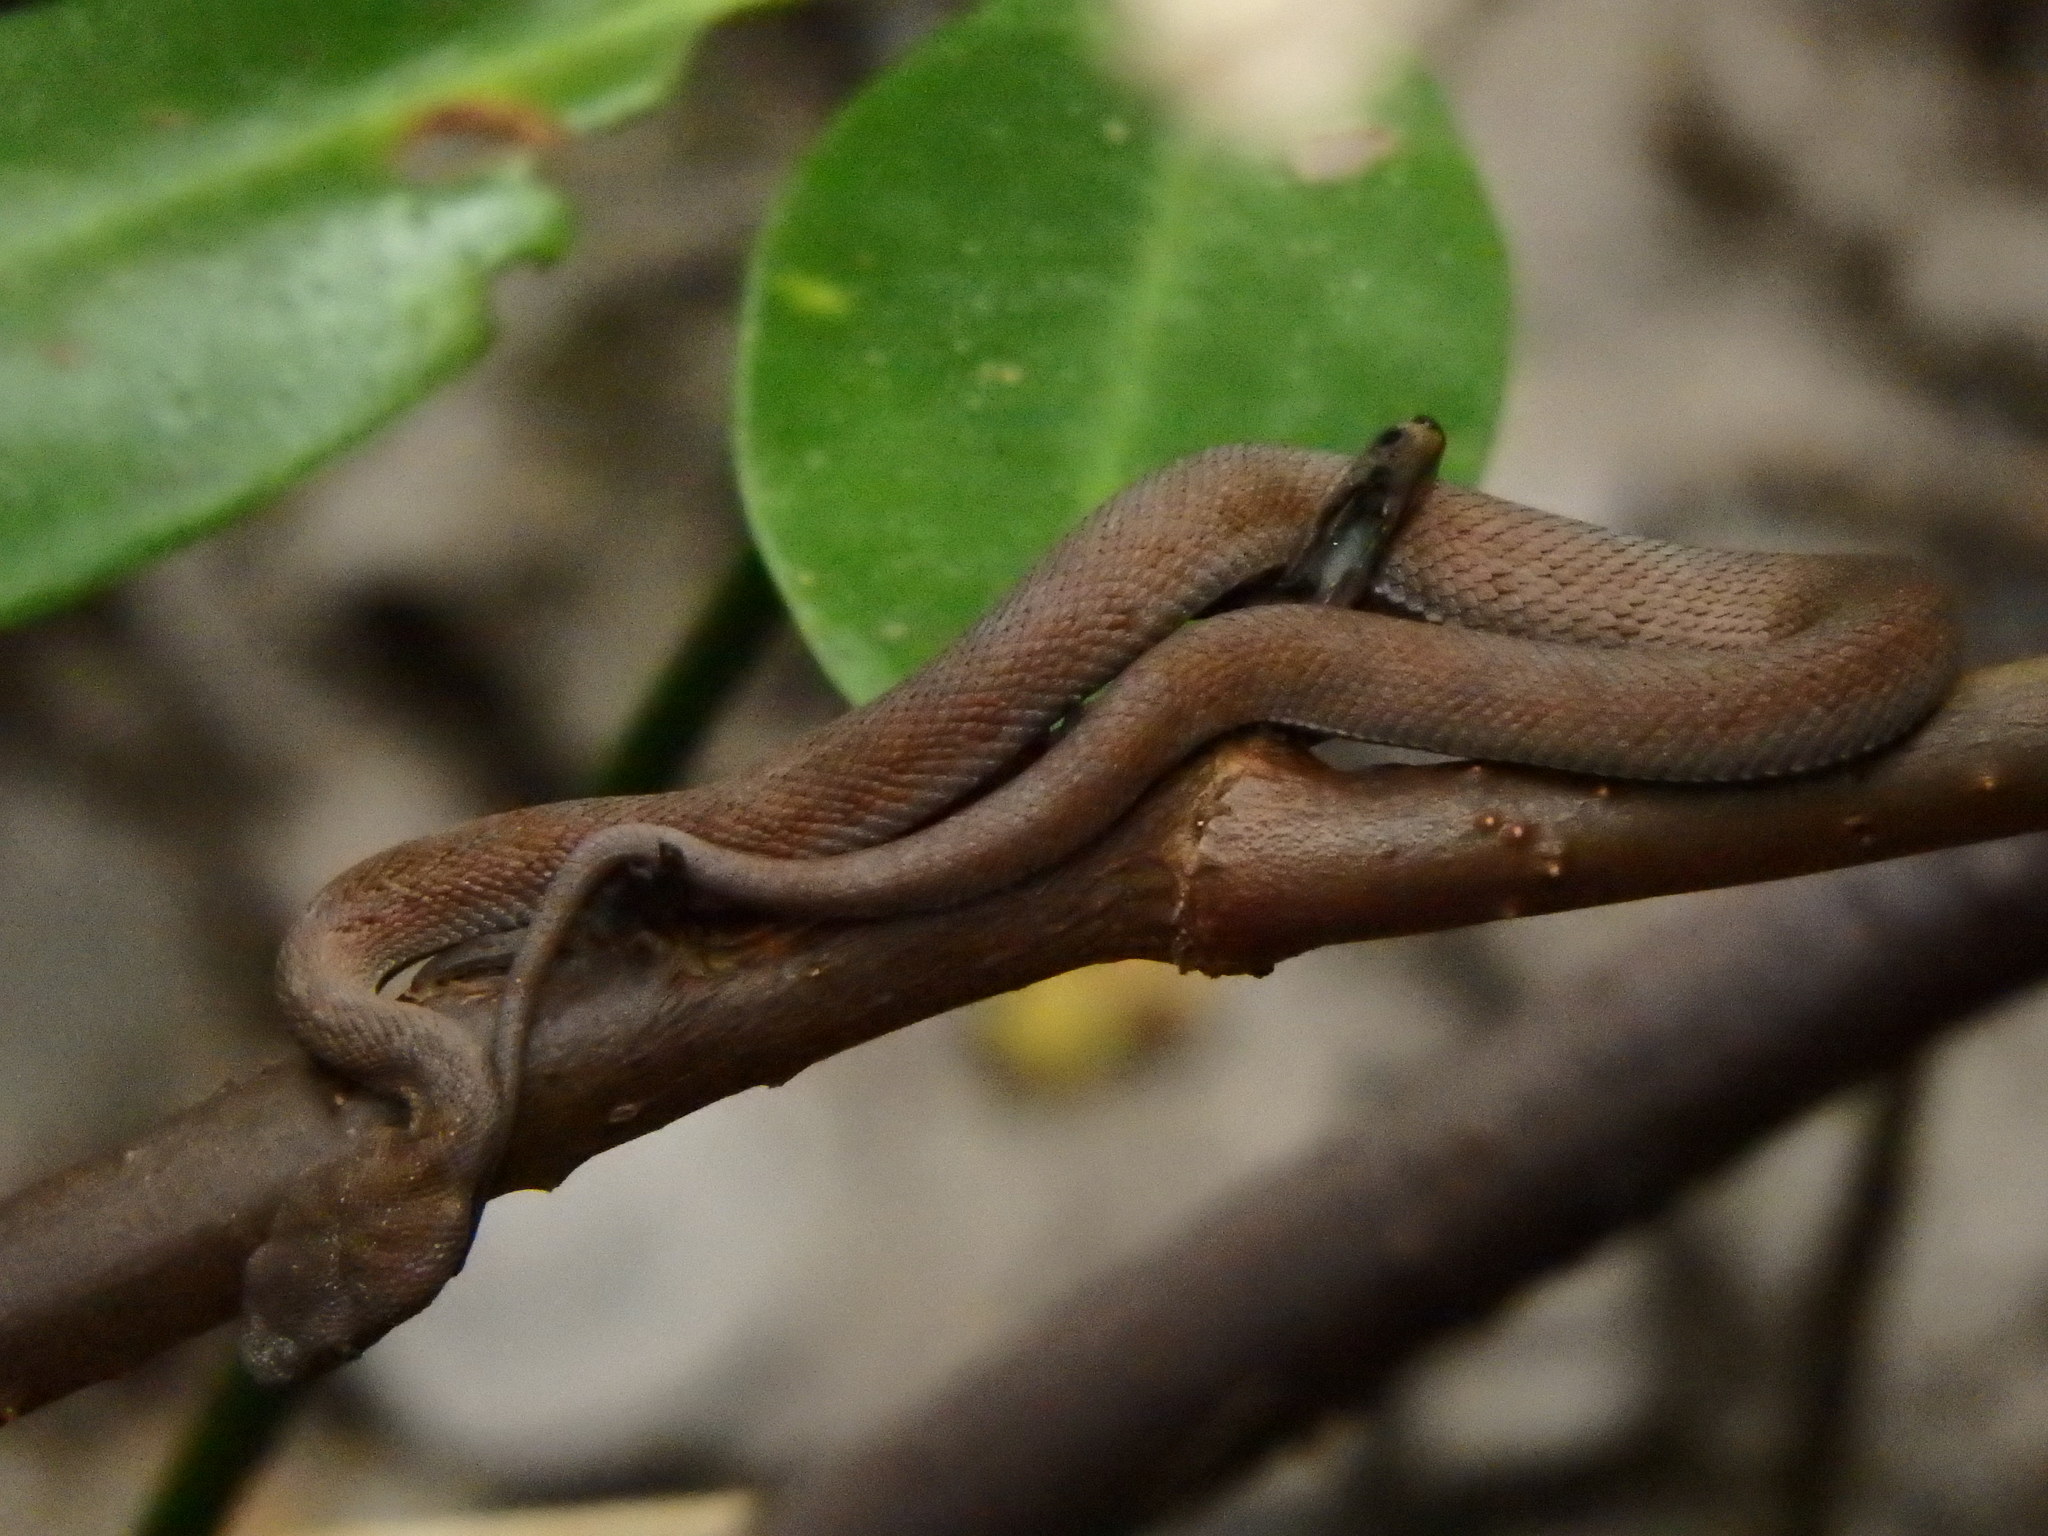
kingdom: Animalia
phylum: Chordata
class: Squamata
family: Viperidae
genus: Trimeresurus
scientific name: Trimeresurus purpureomaculatus
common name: Shore pit viper
